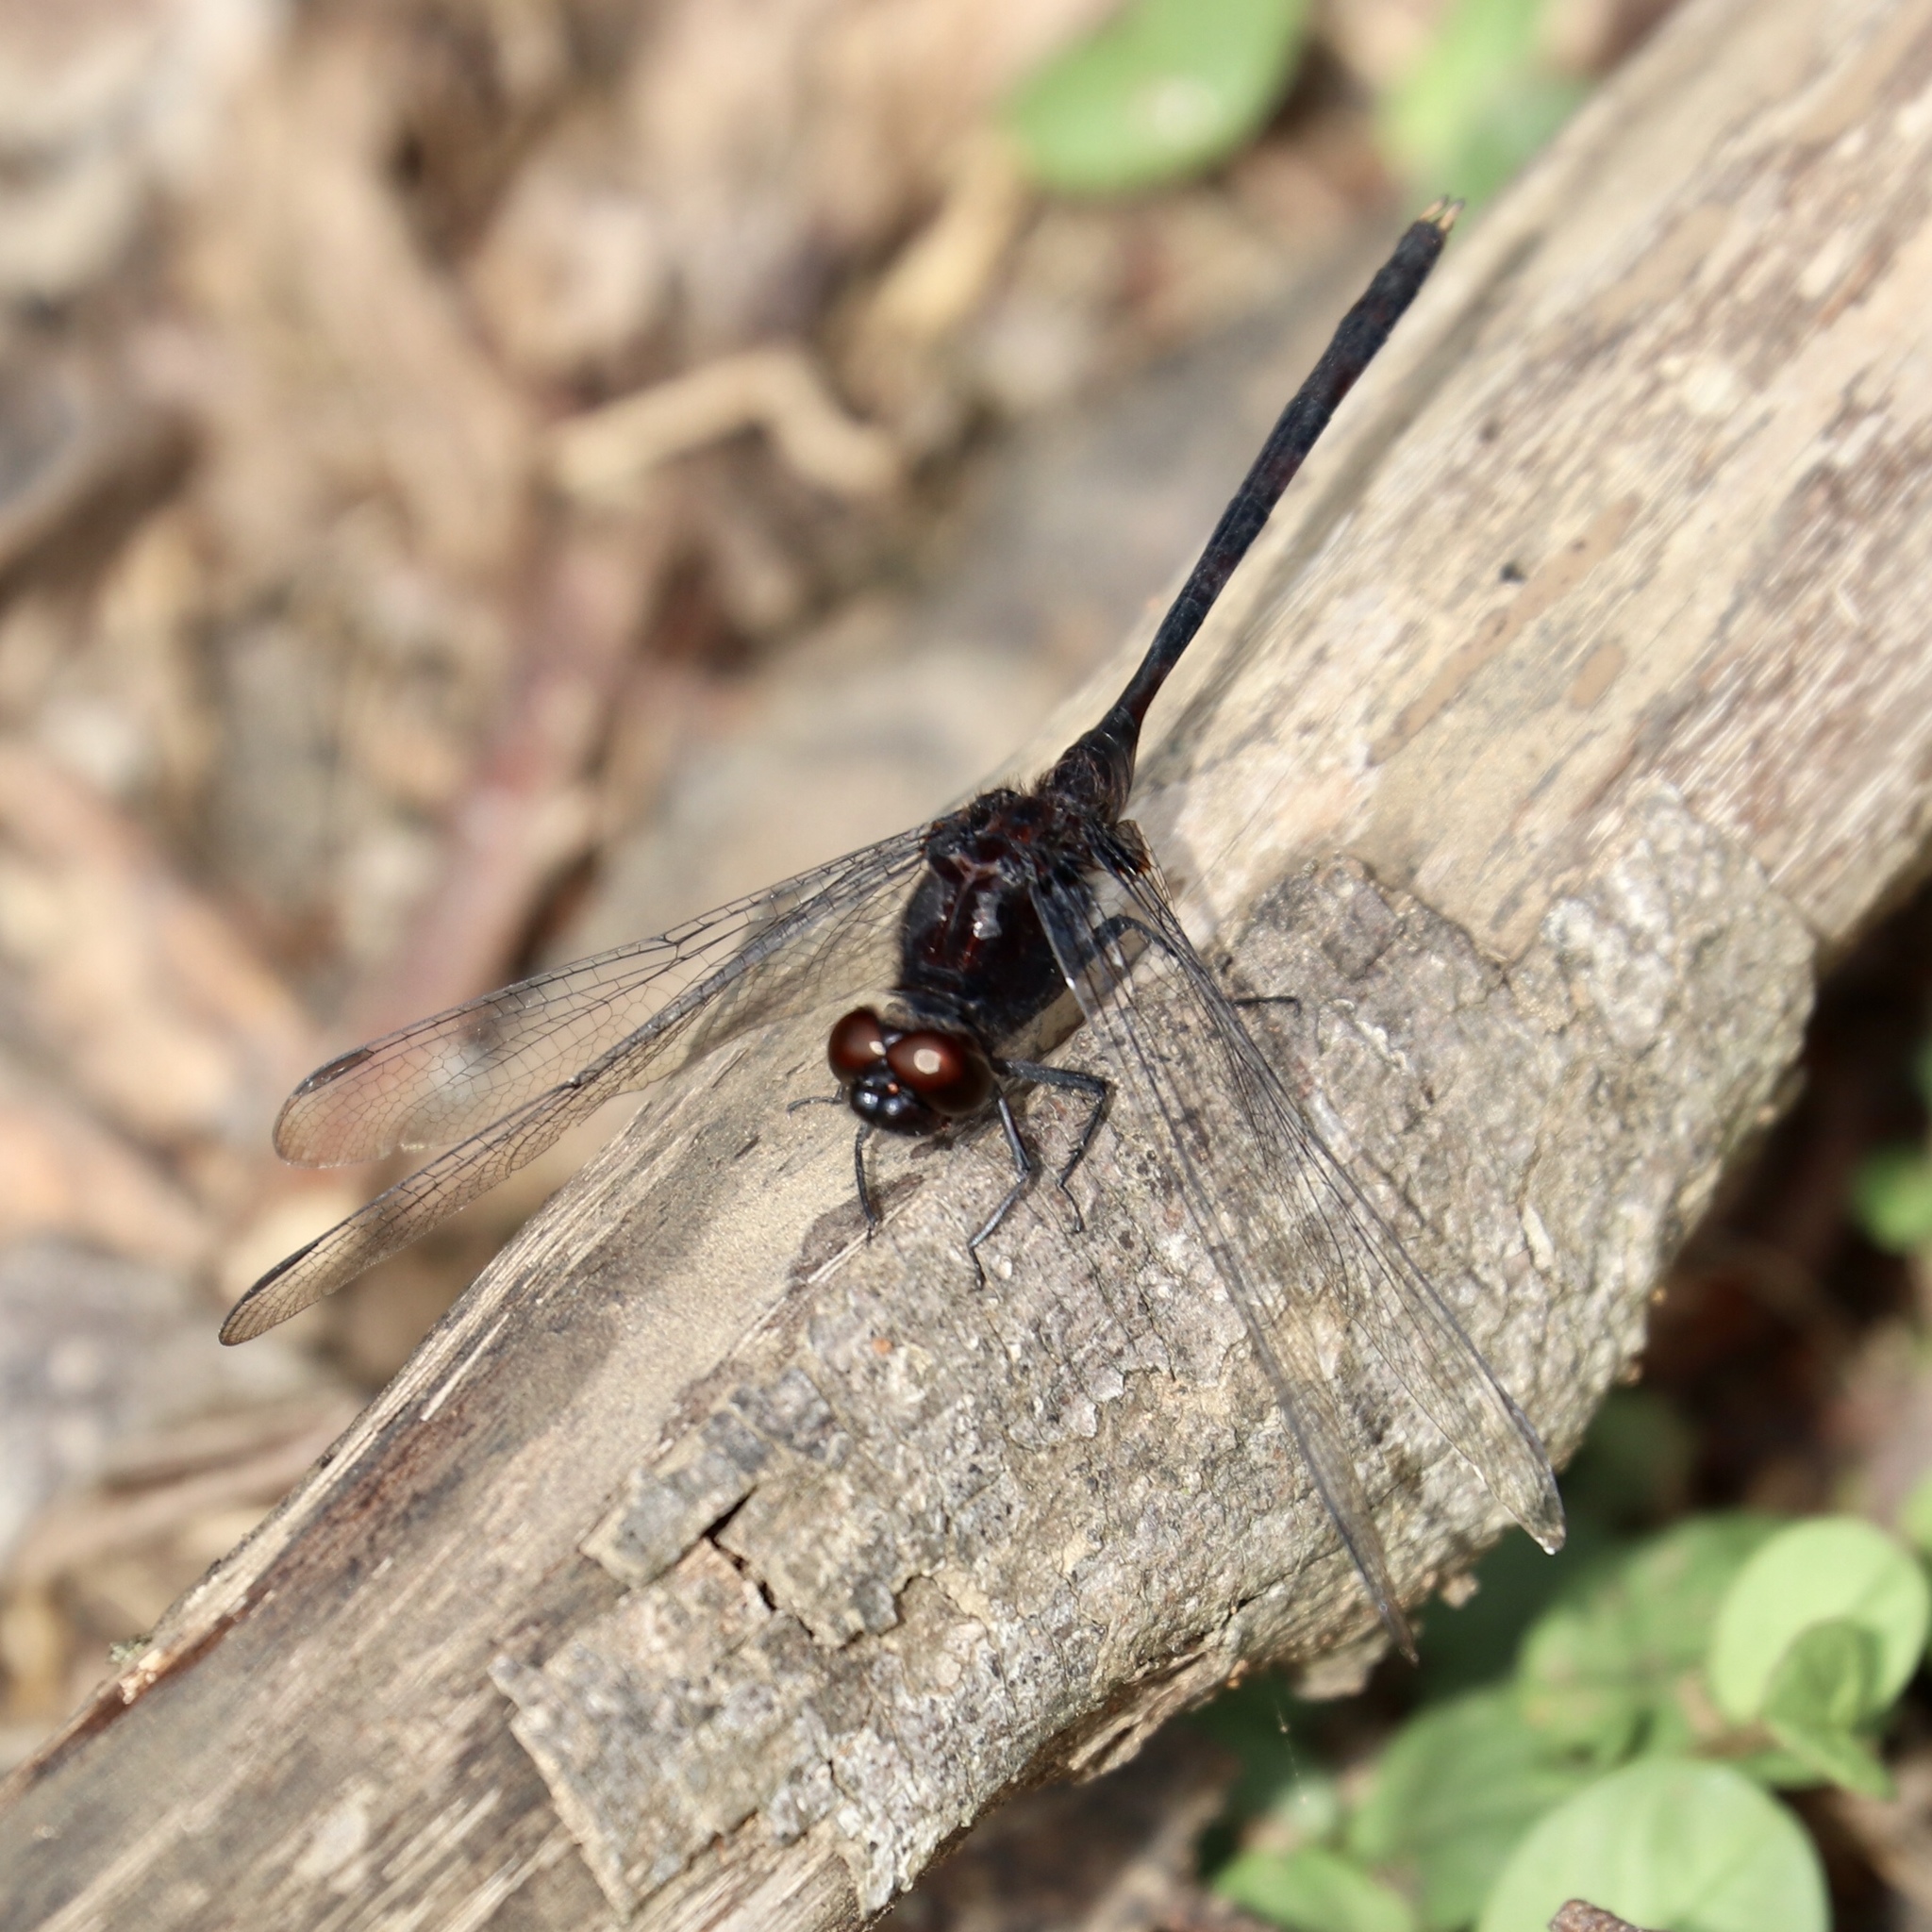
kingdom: Animalia
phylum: Arthropoda
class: Insecta
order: Odonata
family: Libellulidae
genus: Erythemis
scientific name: Erythemis plebeja
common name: Pin-tailed pondhawk
